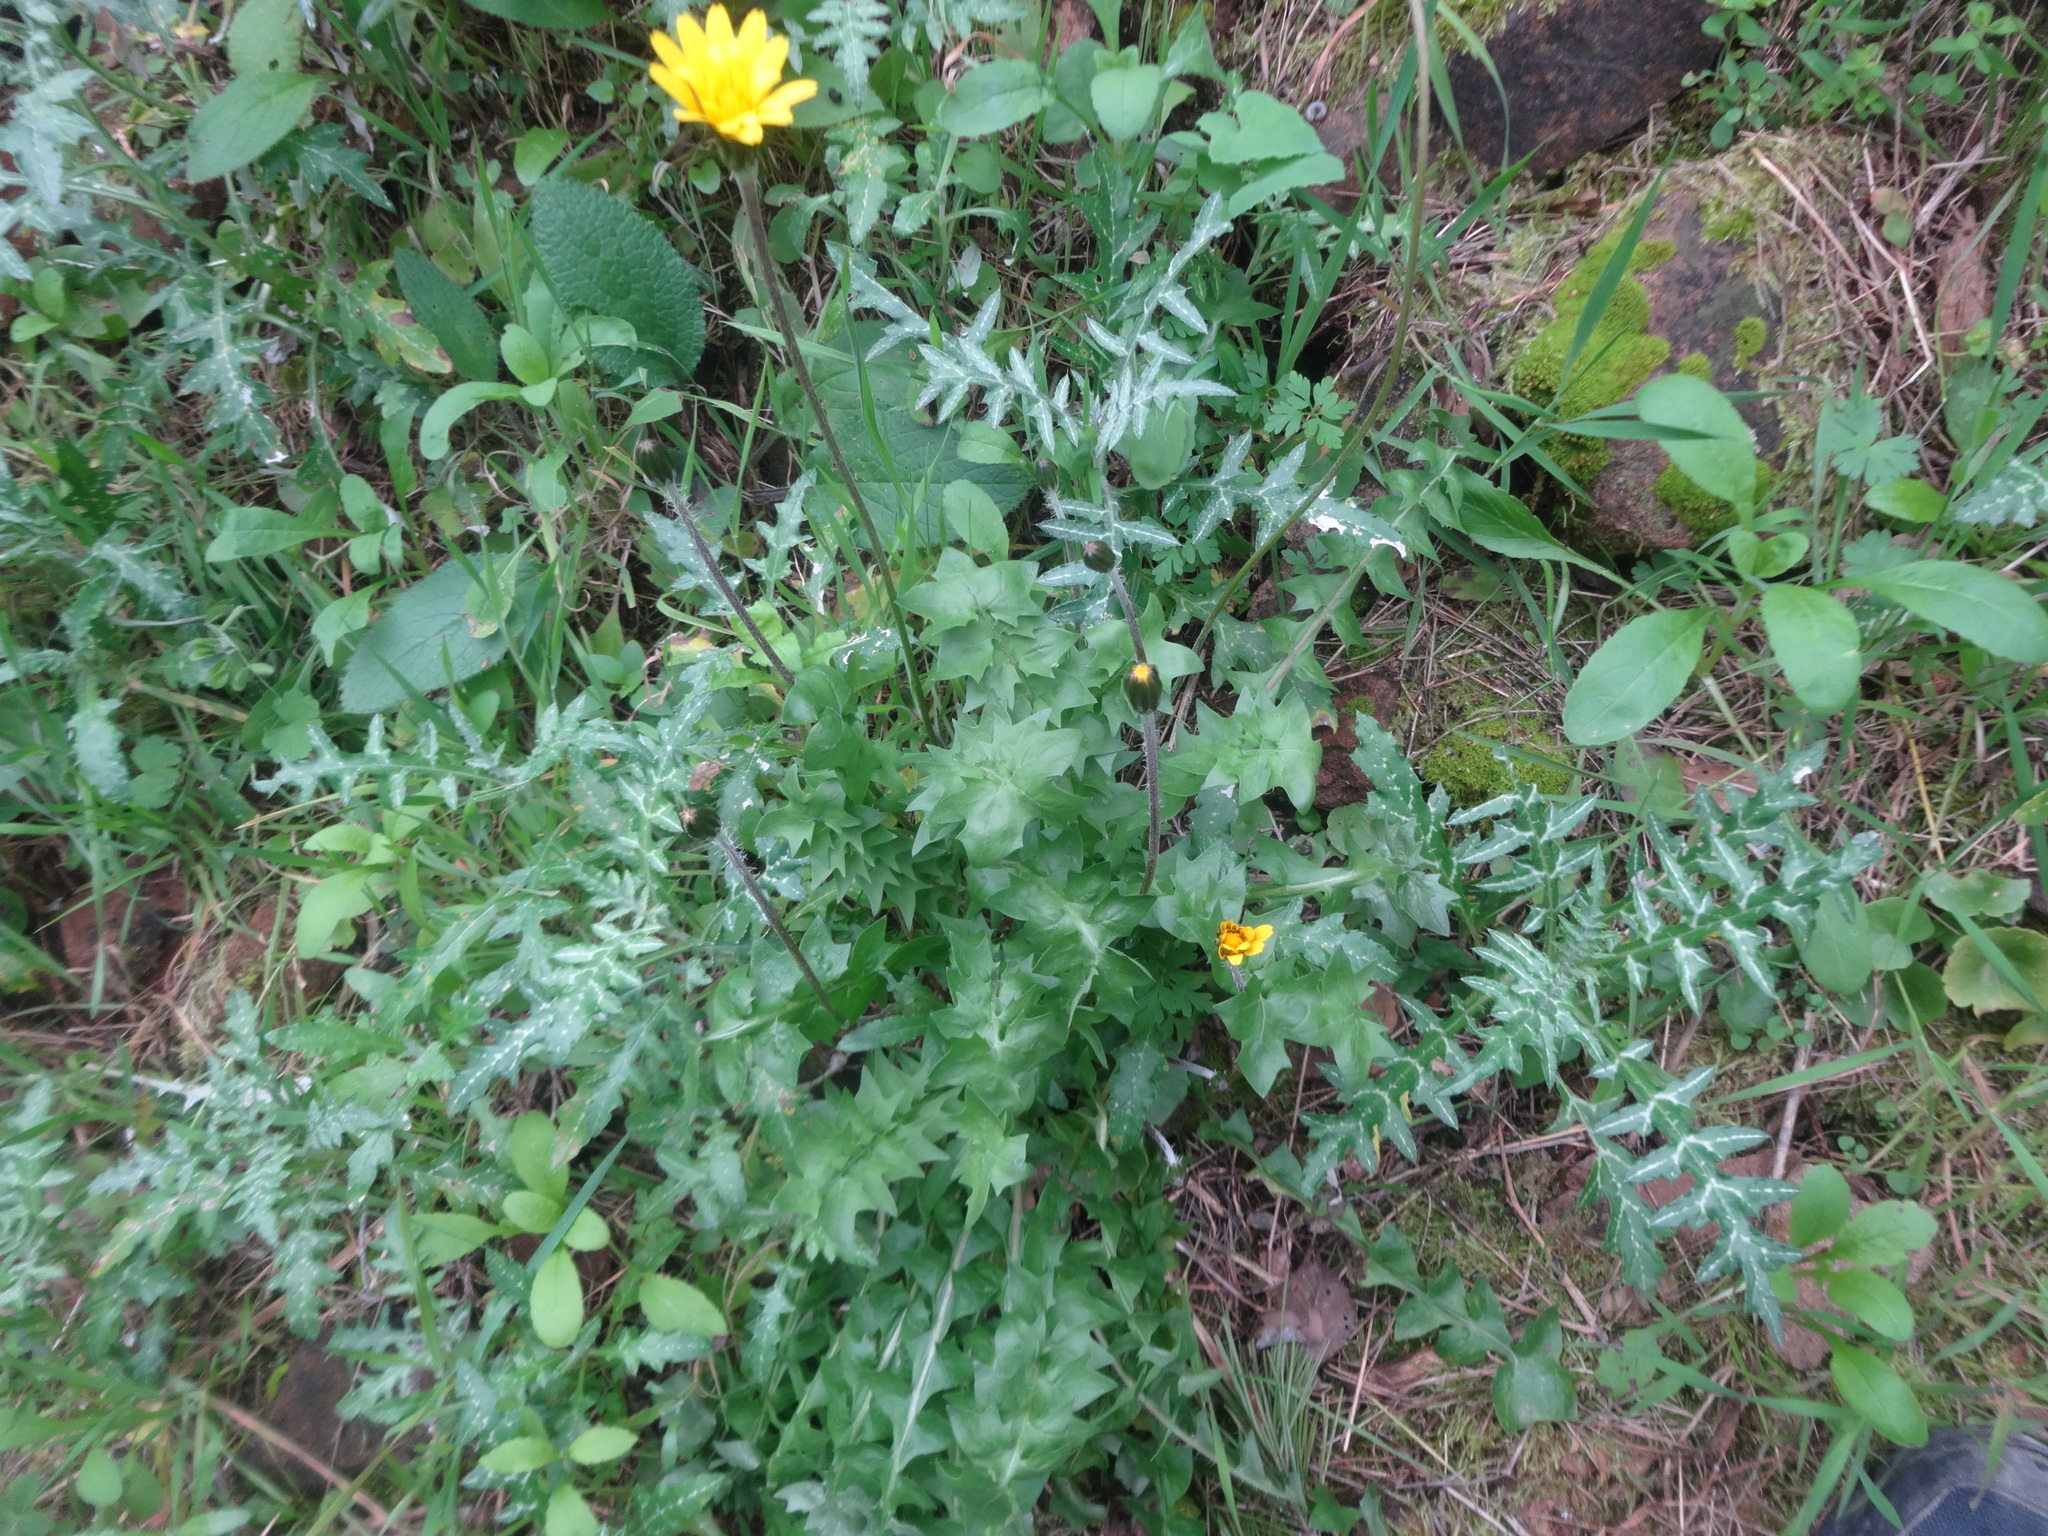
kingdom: Plantae
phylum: Tracheophyta
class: Magnoliopsida
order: Asterales
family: Asteraceae
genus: Hyoseris
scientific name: Hyoseris radiata
